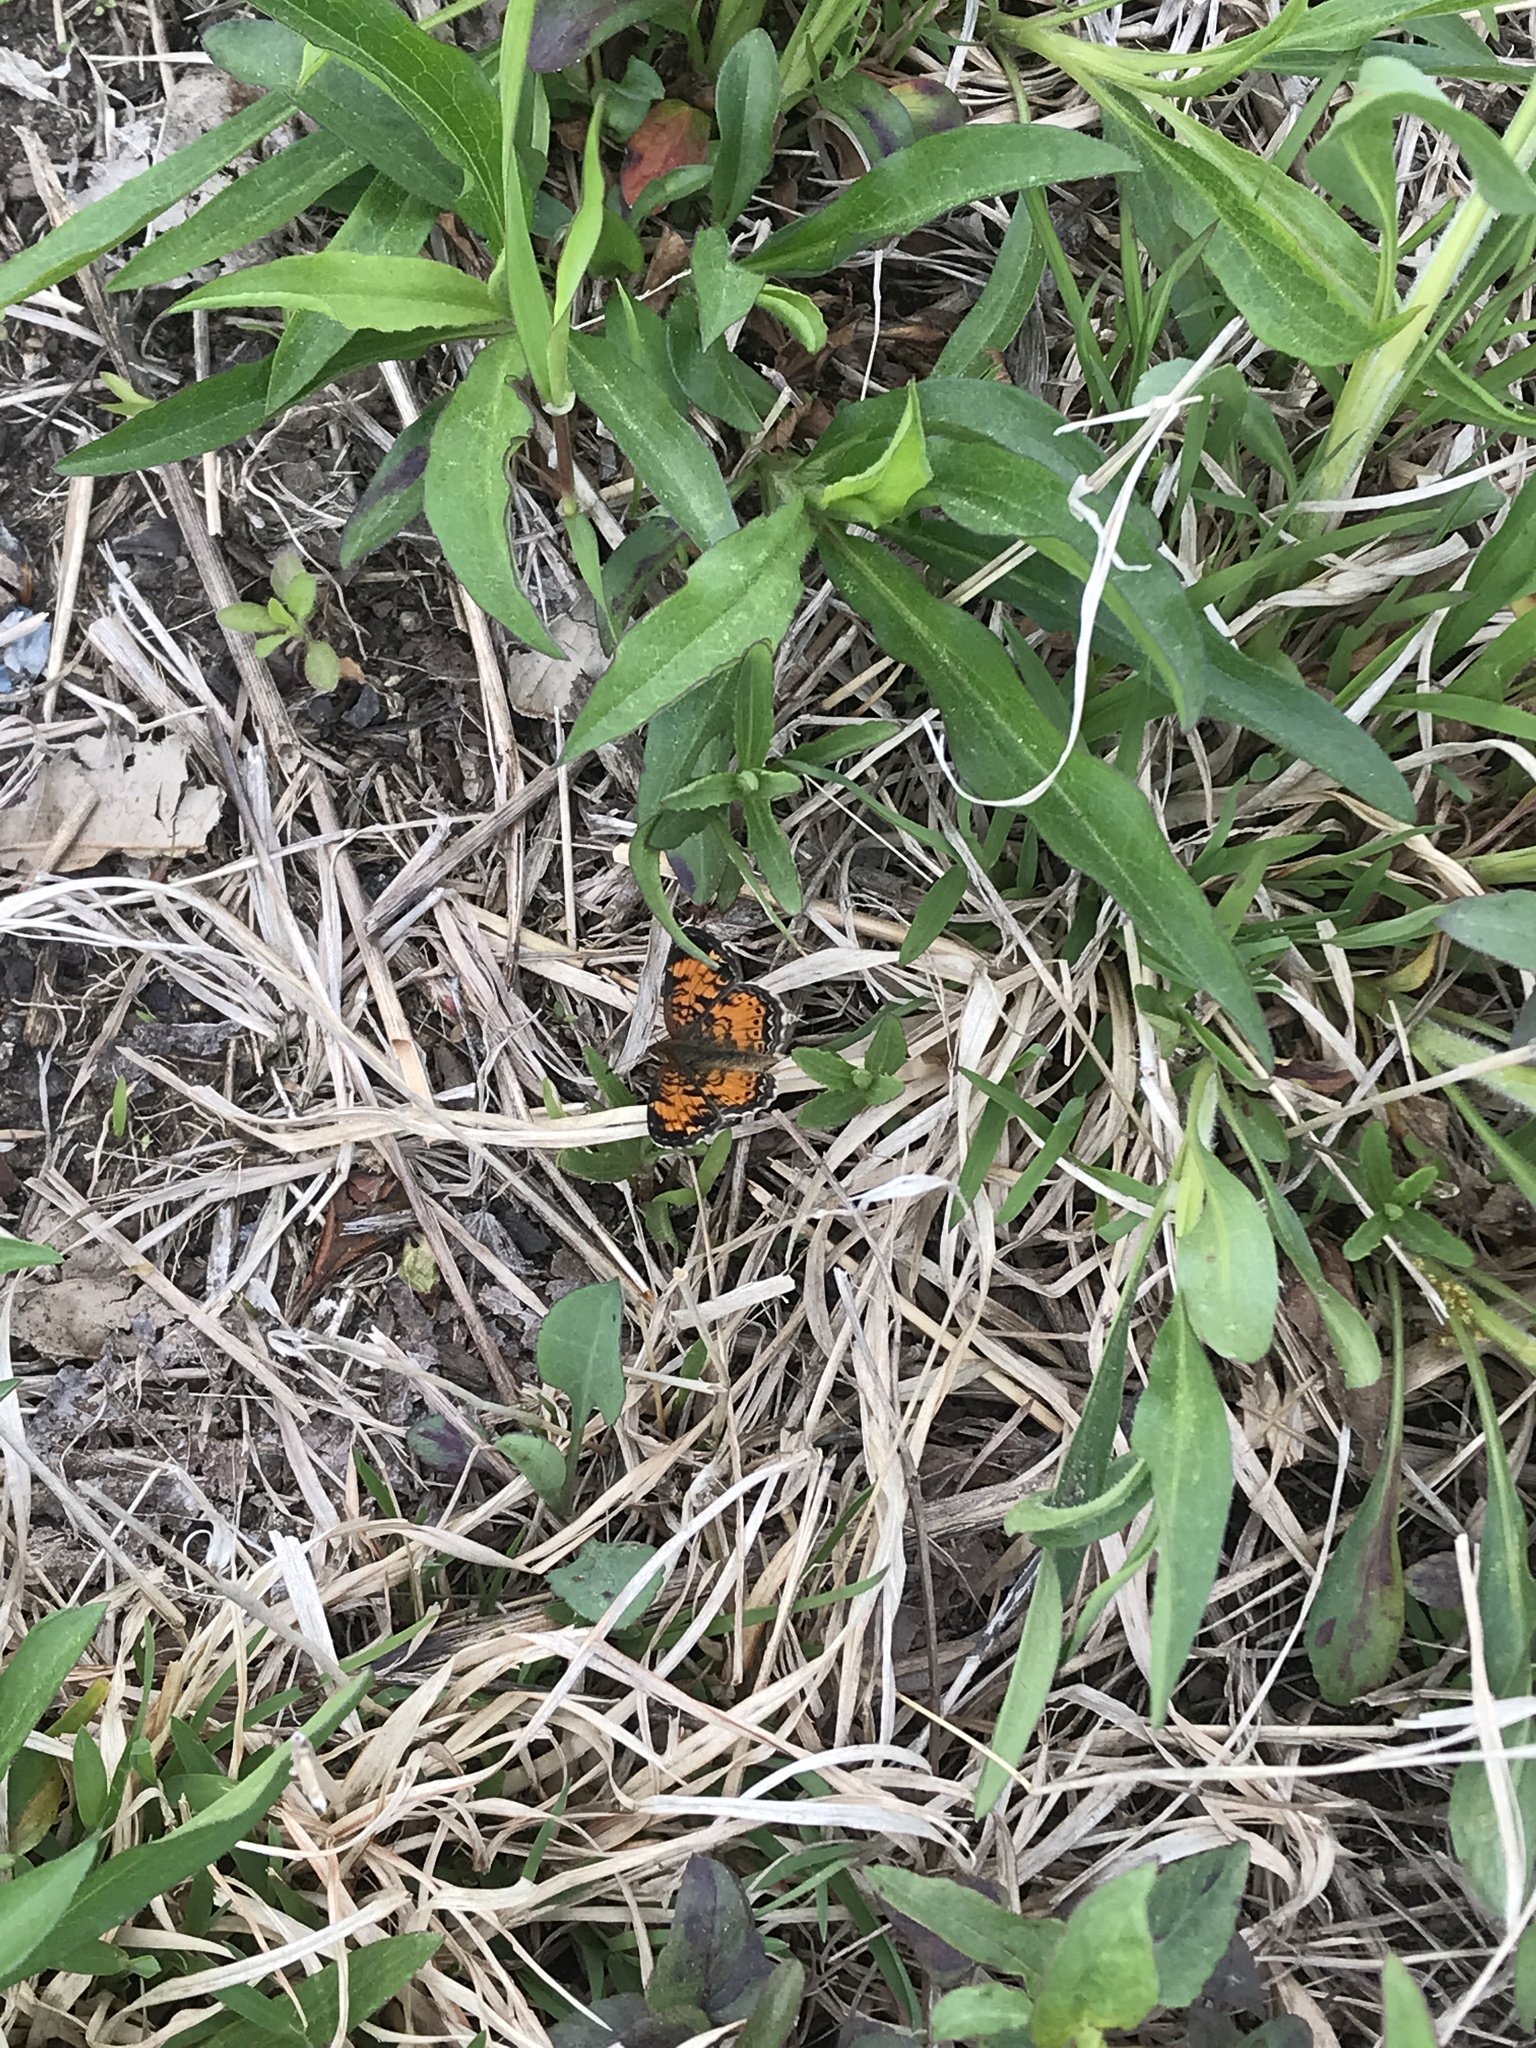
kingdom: Animalia
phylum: Arthropoda
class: Insecta
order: Lepidoptera
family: Nymphalidae
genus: Phyciodes
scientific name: Phyciodes tharos
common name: Pearl crescent
